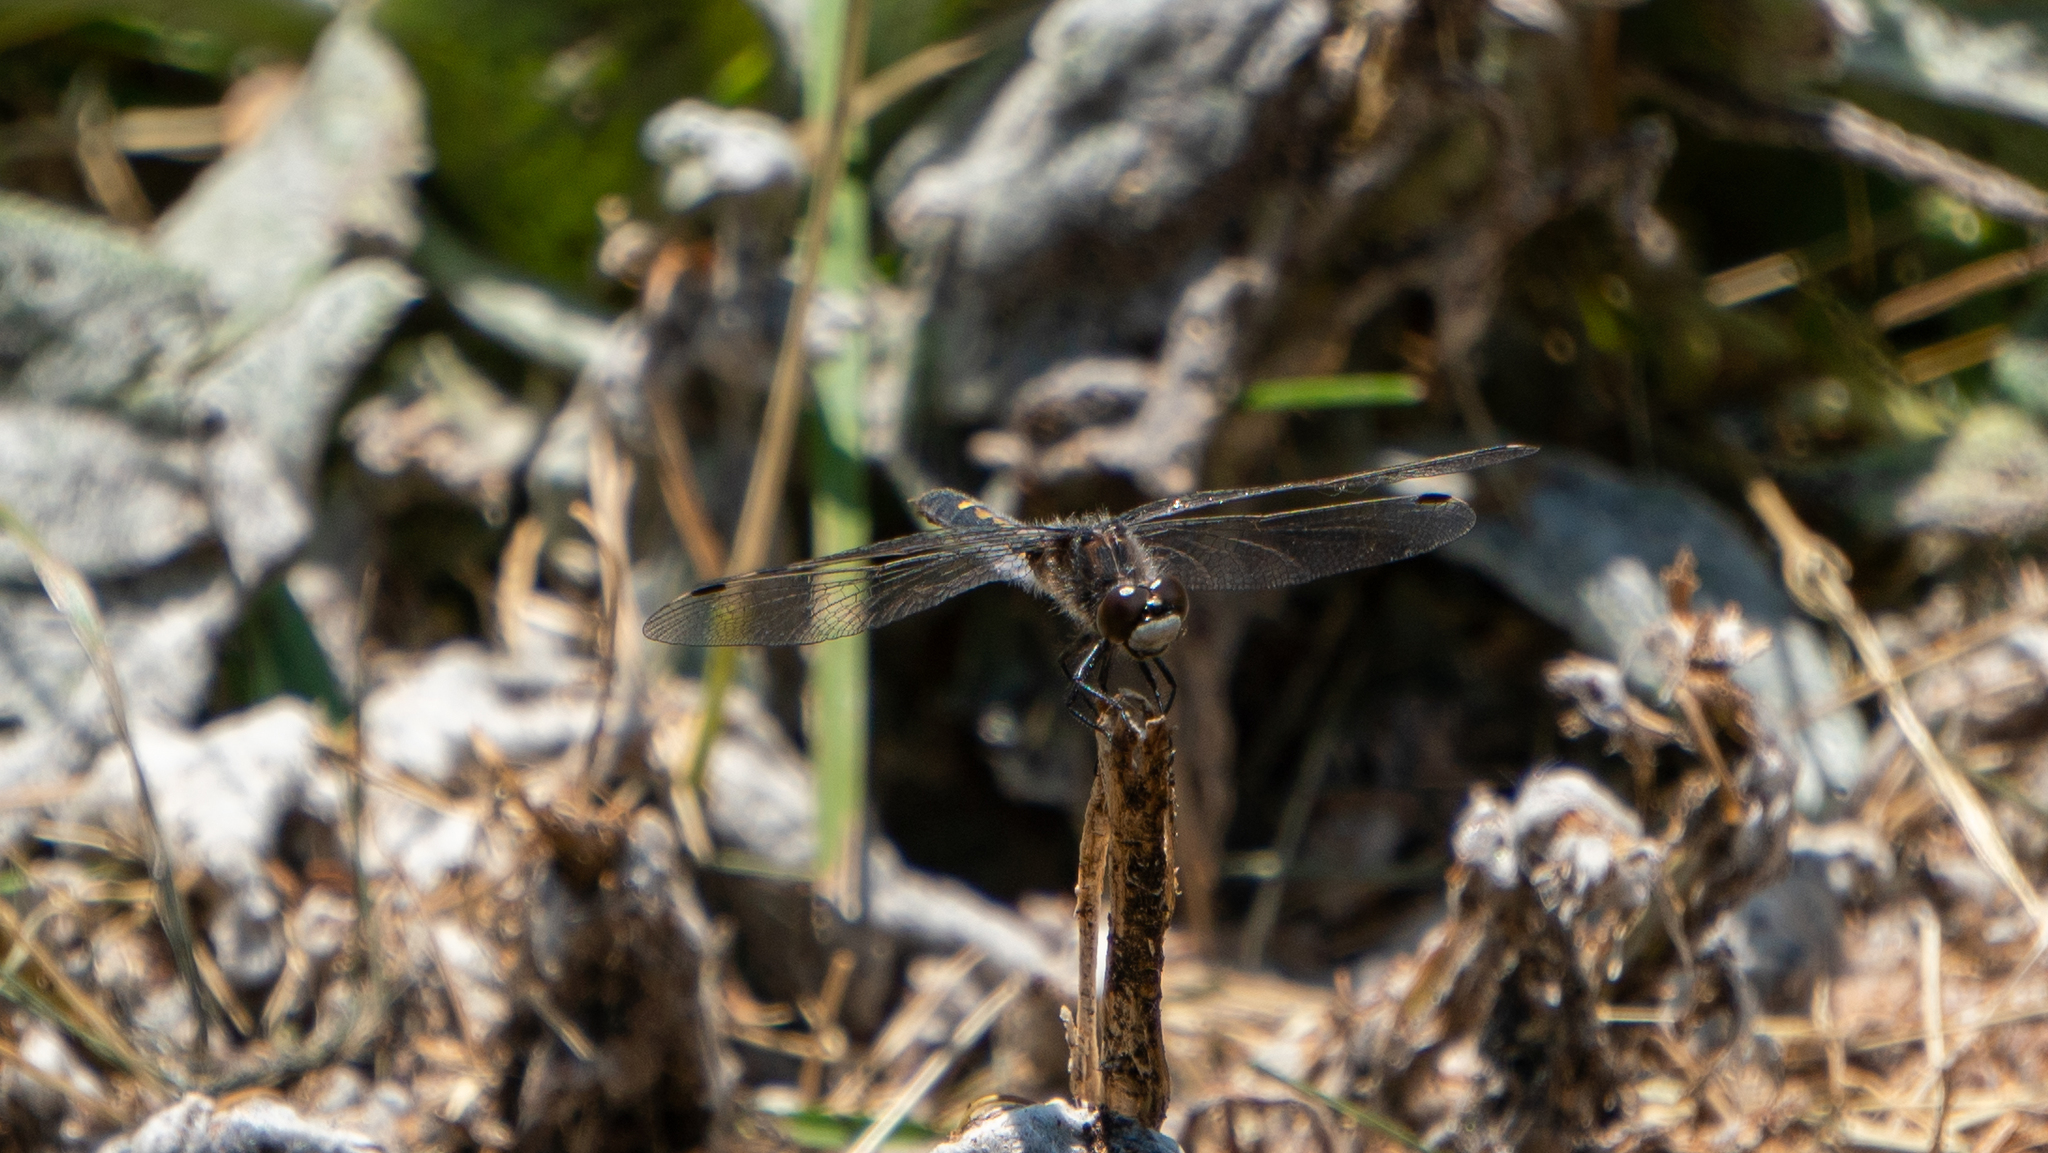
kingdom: Animalia
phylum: Arthropoda
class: Insecta
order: Odonata
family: Libellulidae
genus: Leucorrhinia
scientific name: Leucorrhinia intacta
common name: Dot-tailed whiteface
